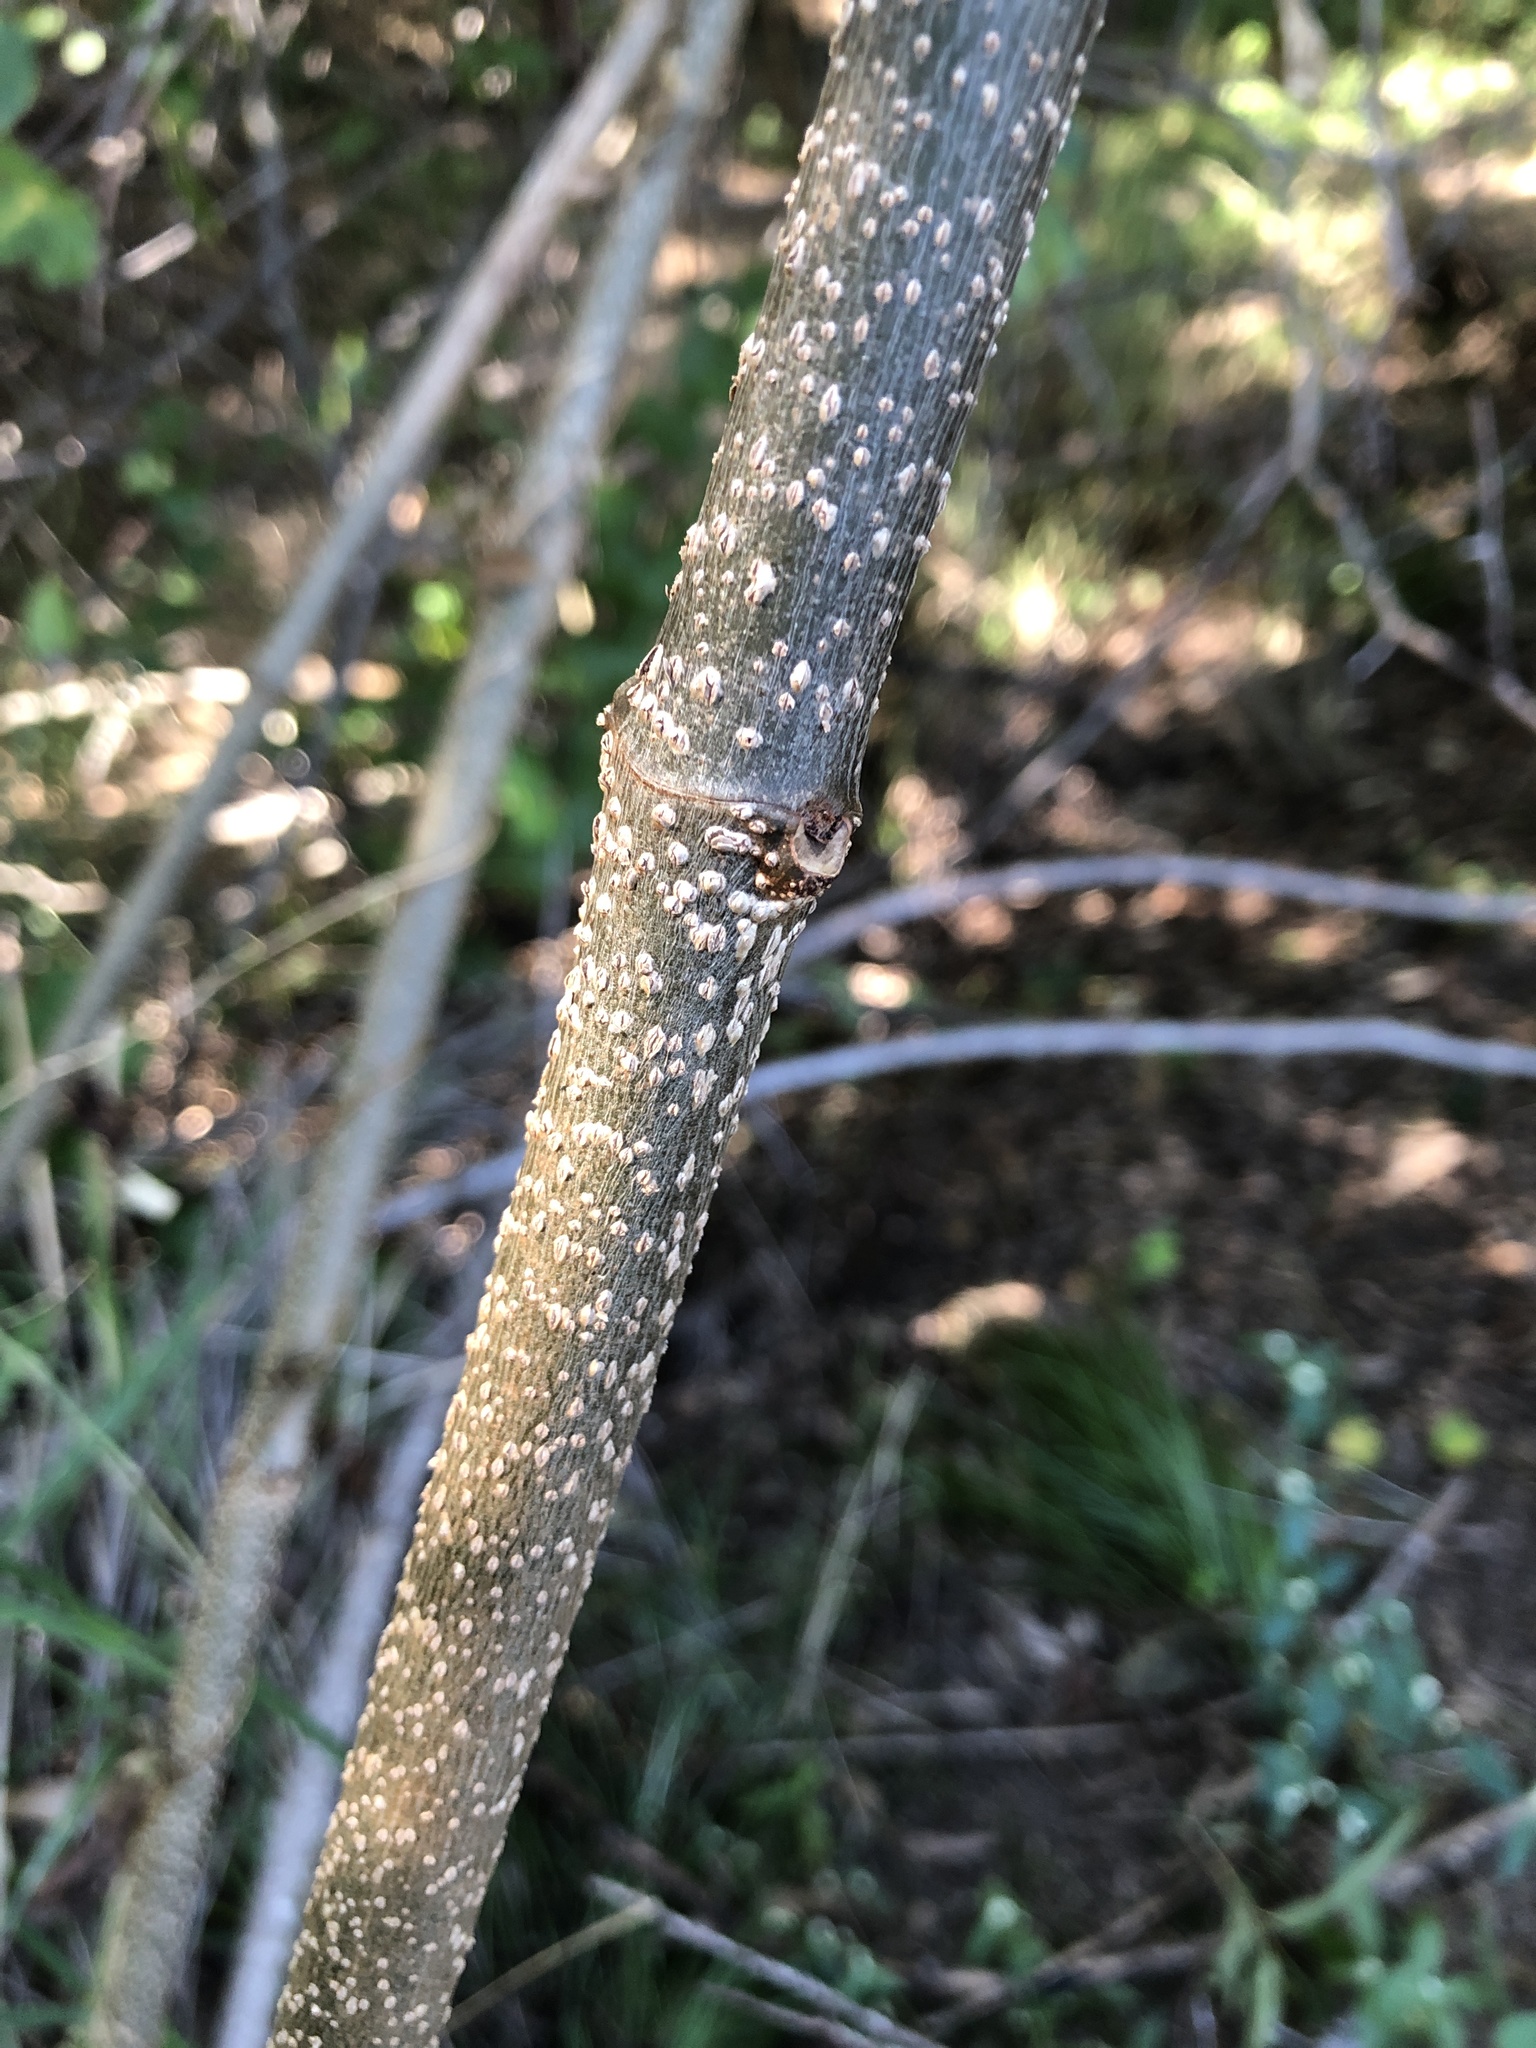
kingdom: Plantae
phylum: Tracheophyta
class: Magnoliopsida
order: Gentianales
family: Apocynaceae
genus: Cryptostegia
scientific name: Cryptostegia grandiflora
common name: Palay rubbervine
